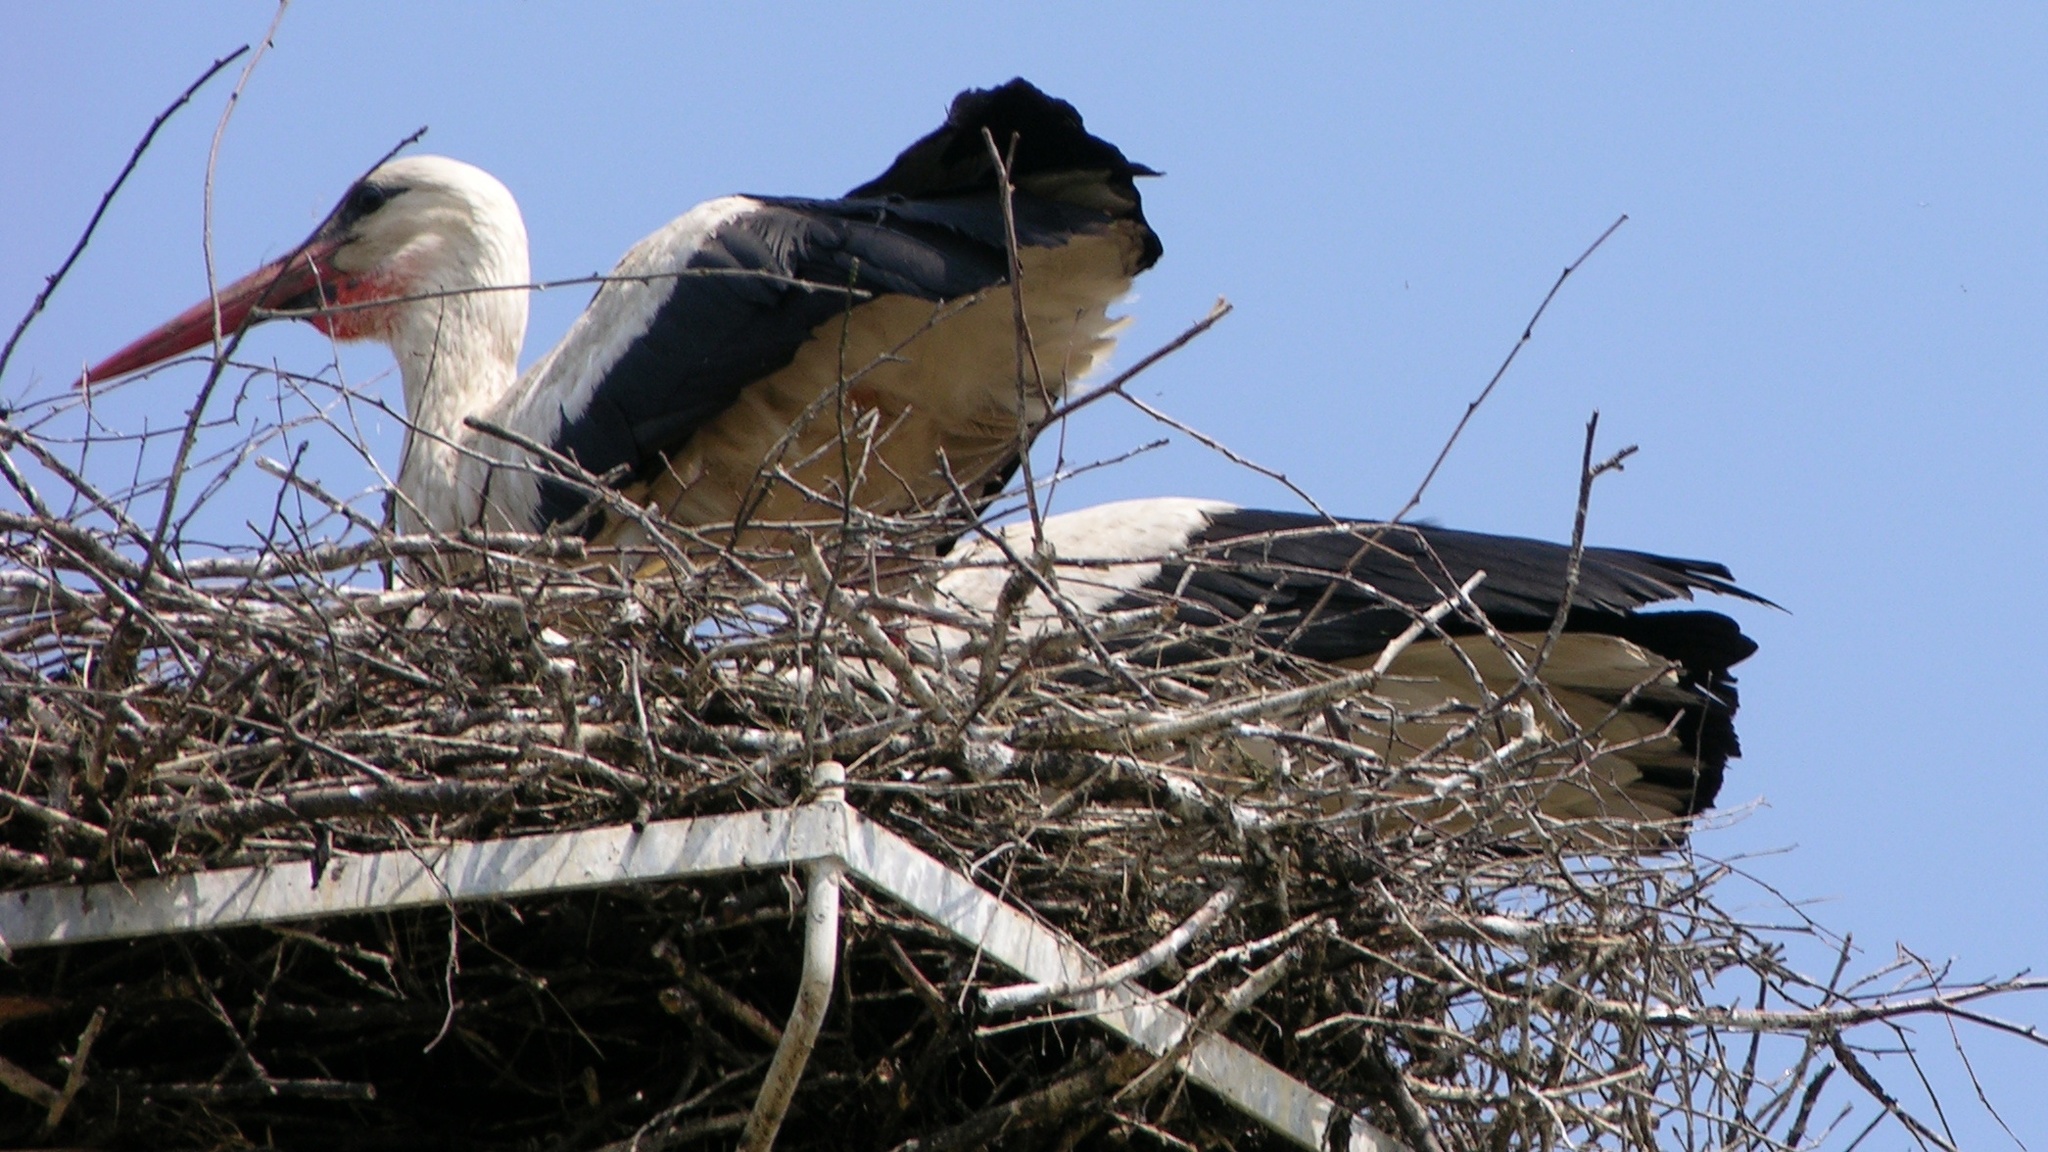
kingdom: Animalia
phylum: Chordata
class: Aves
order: Ciconiiformes
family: Ciconiidae
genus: Ciconia
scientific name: Ciconia ciconia
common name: White stork
